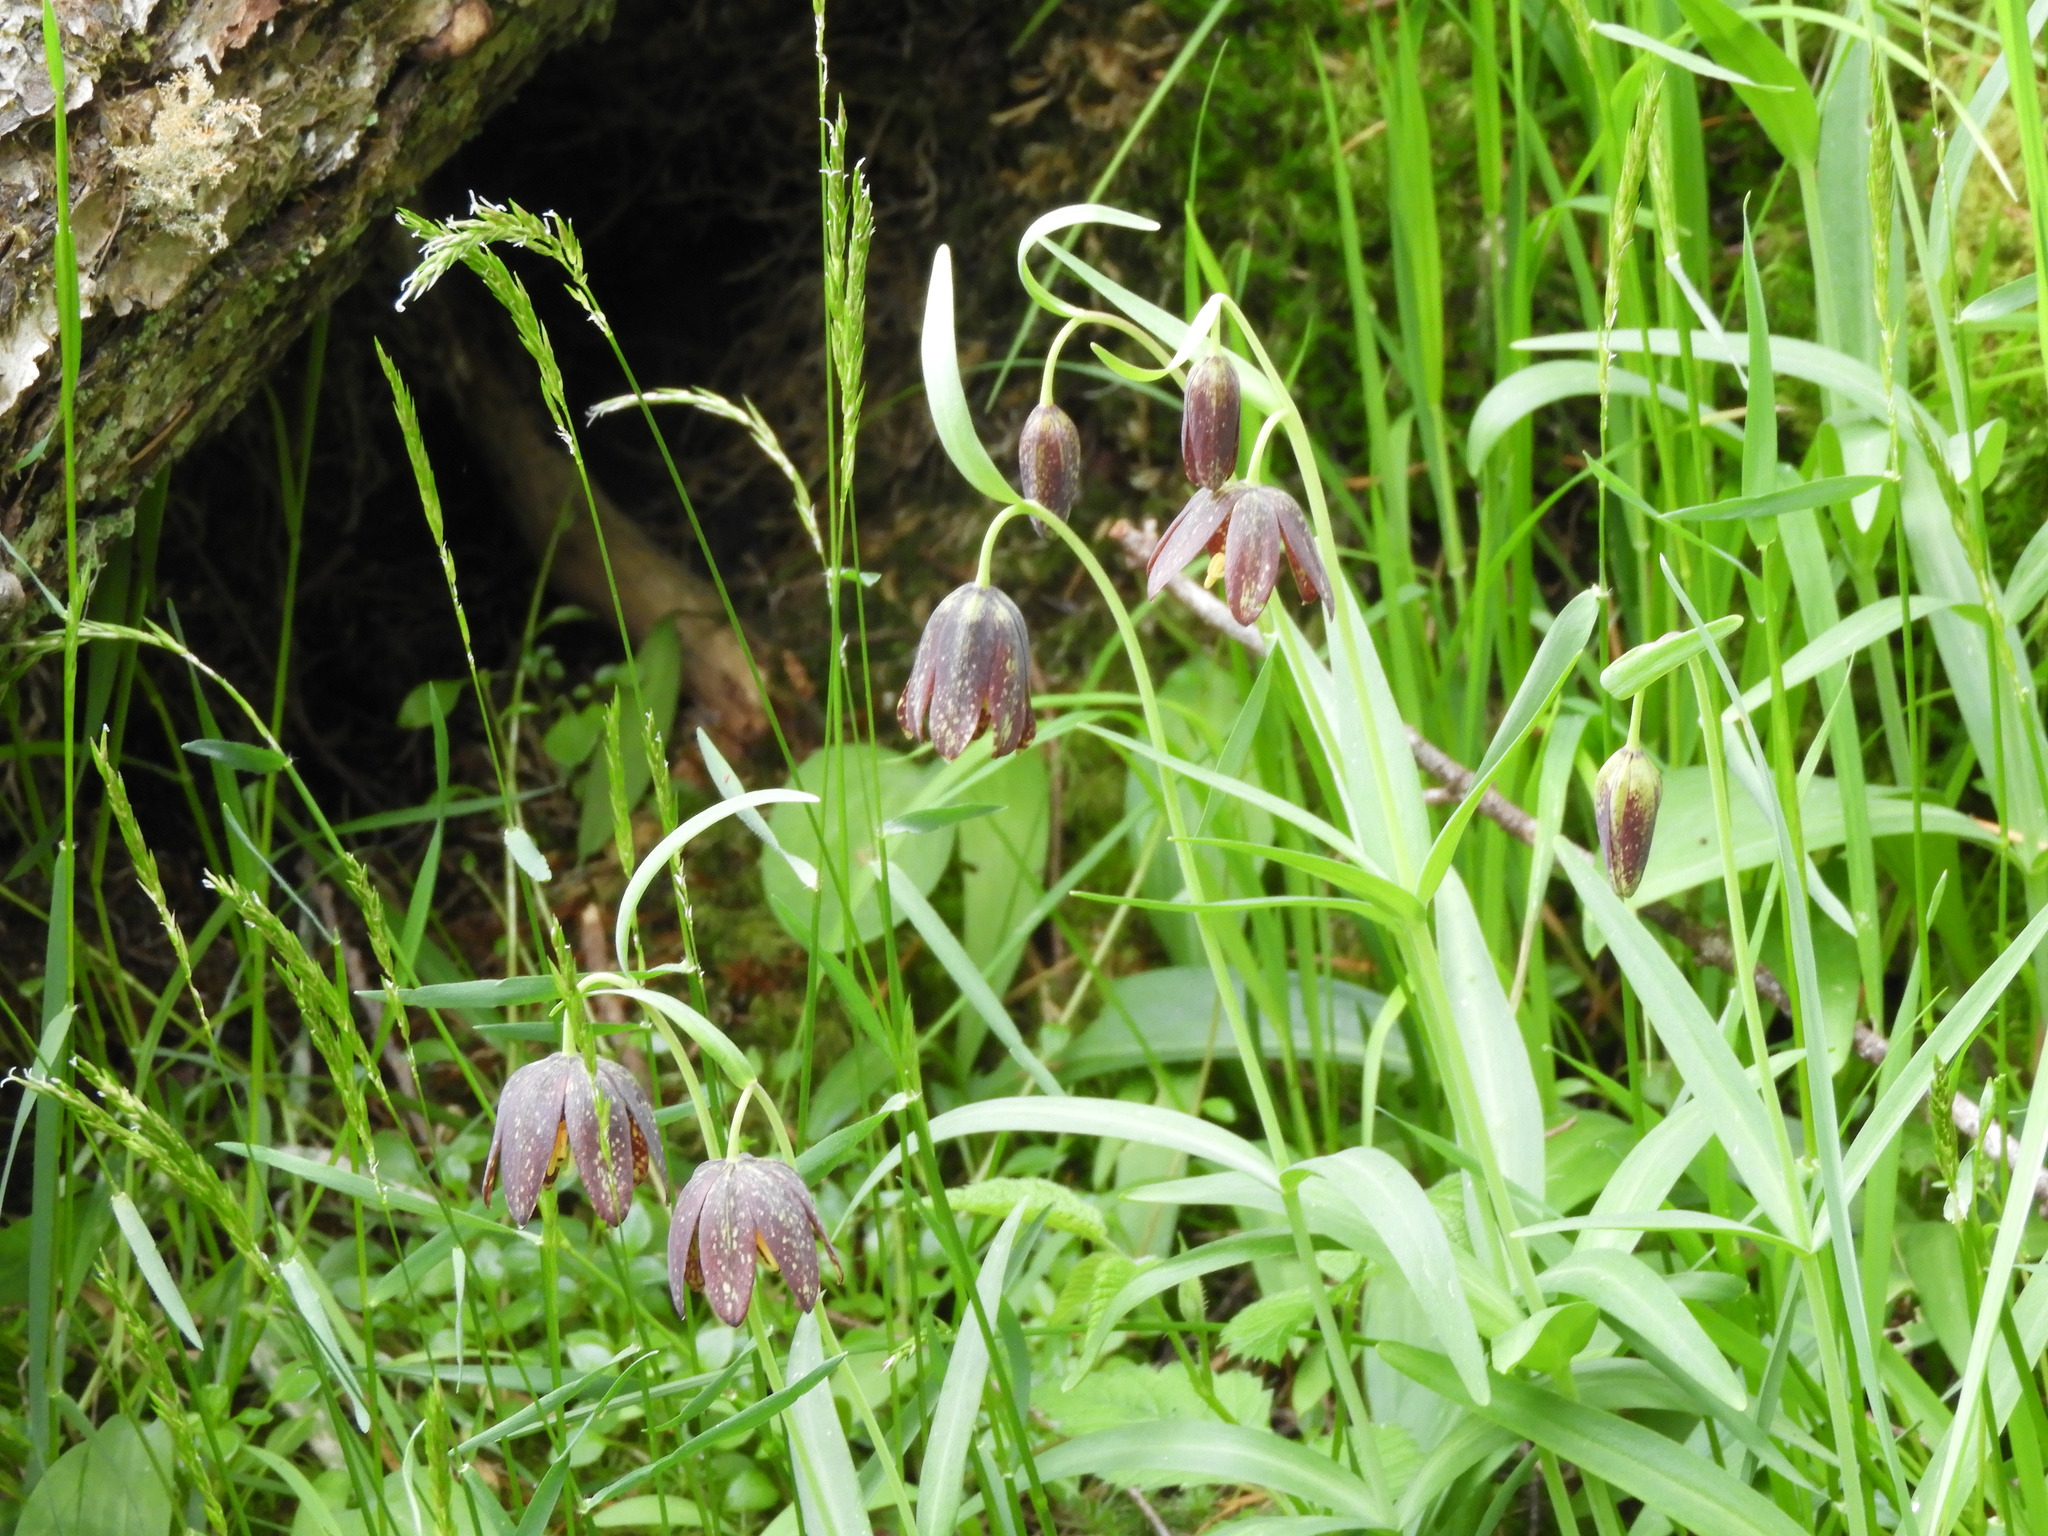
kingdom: Plantae
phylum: Tracheophyta
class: Liliopsida
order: Liliales
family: Liliaceae
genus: Fritillaria
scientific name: Fritillaria affinis
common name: Ojai fritillary
